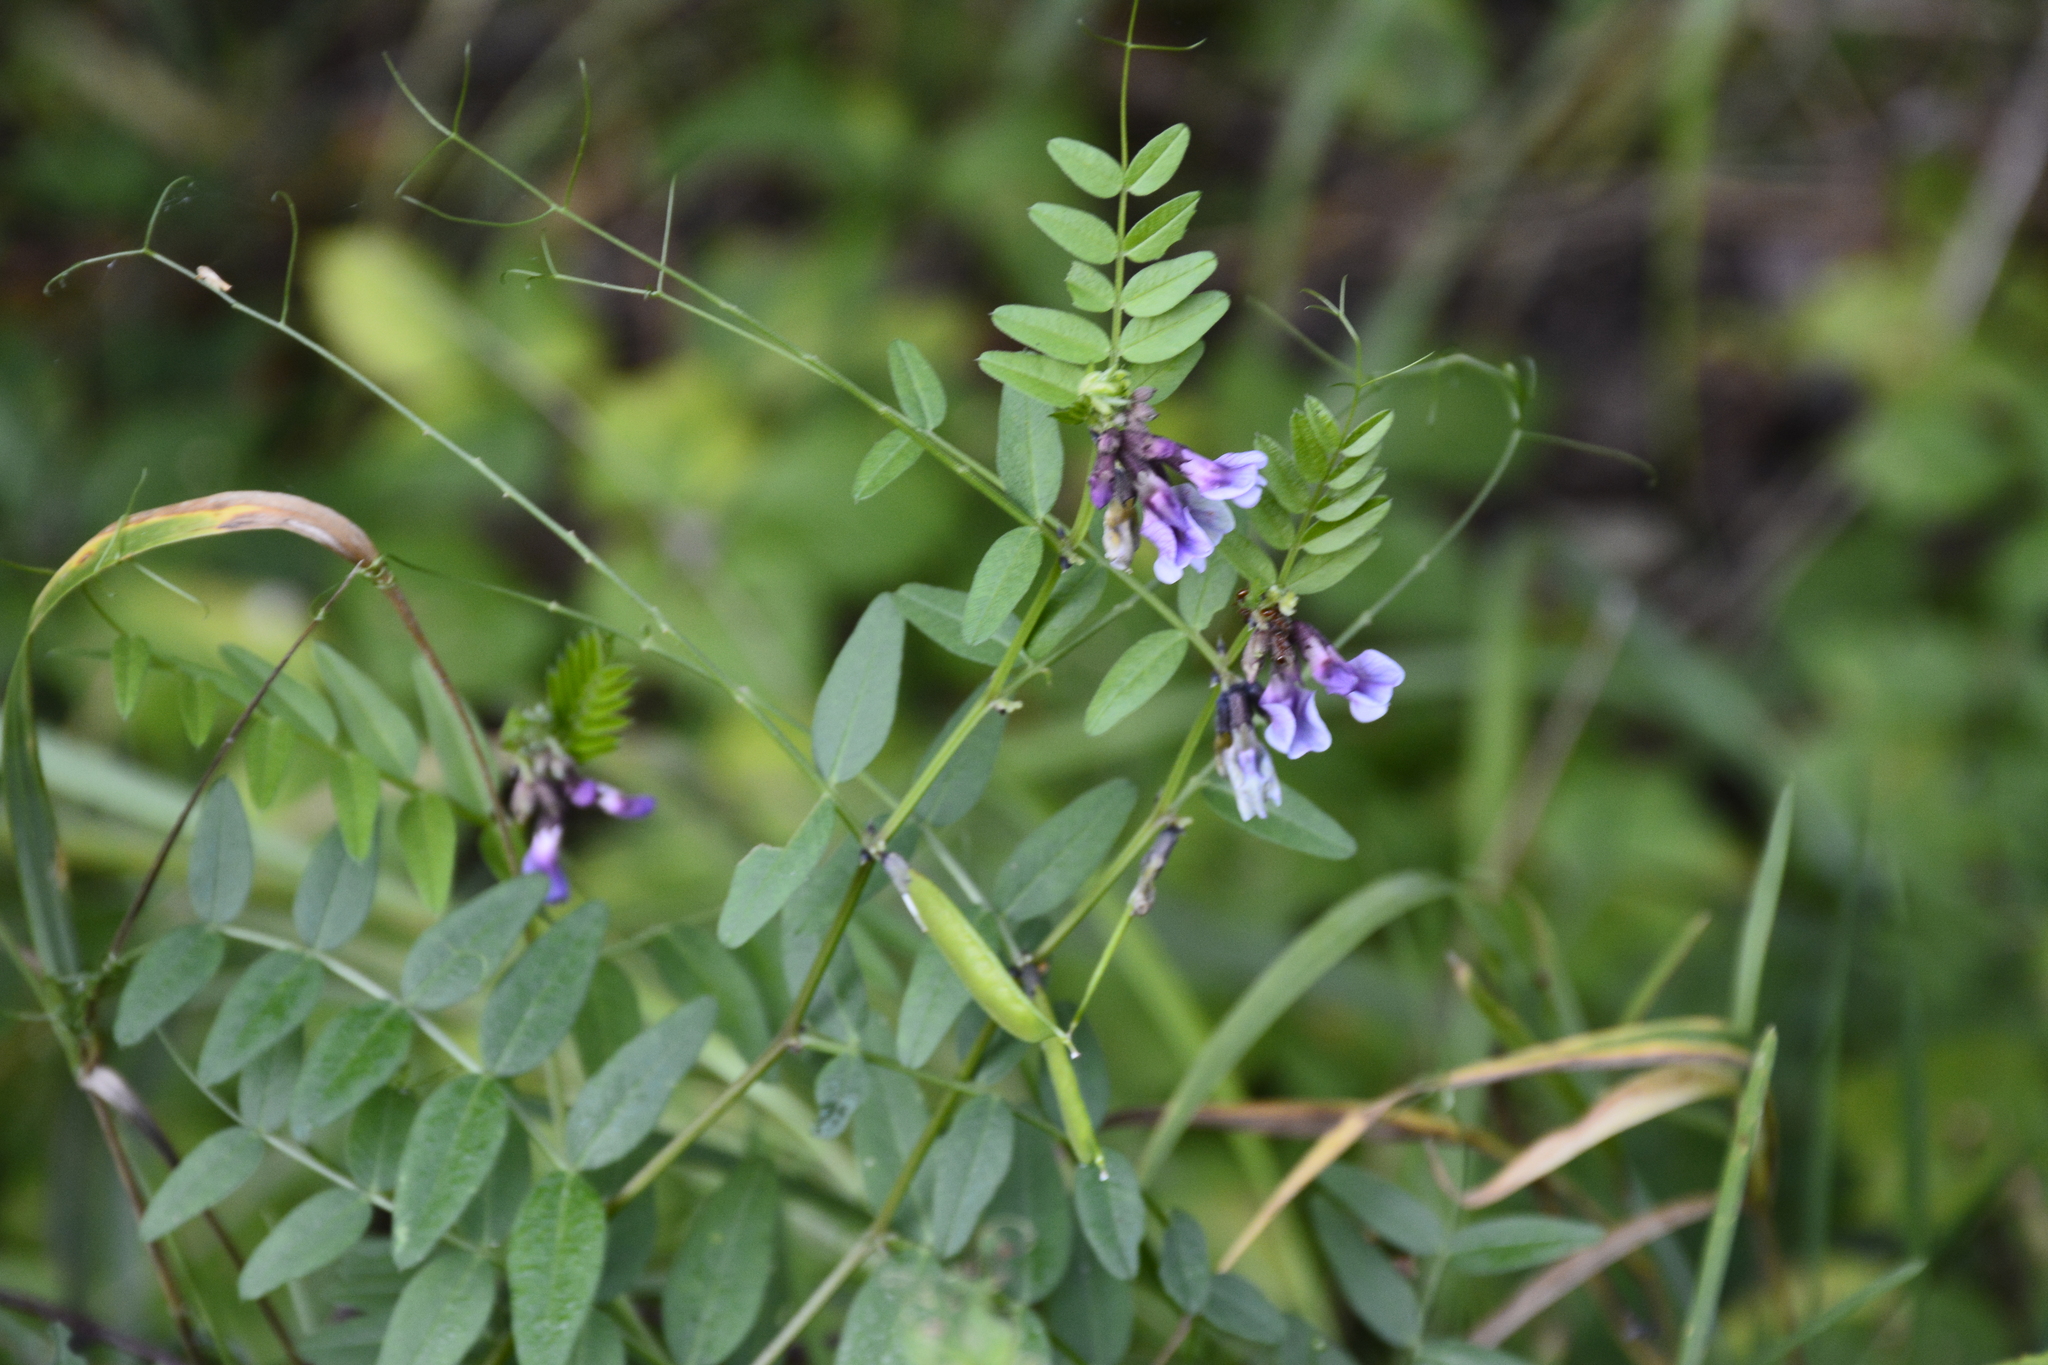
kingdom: Plantae
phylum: Tracheophyta
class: Magnoliopsida
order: Fabales
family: Fabaceae
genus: Vicia
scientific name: Vicia sepium
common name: Bush vetch
